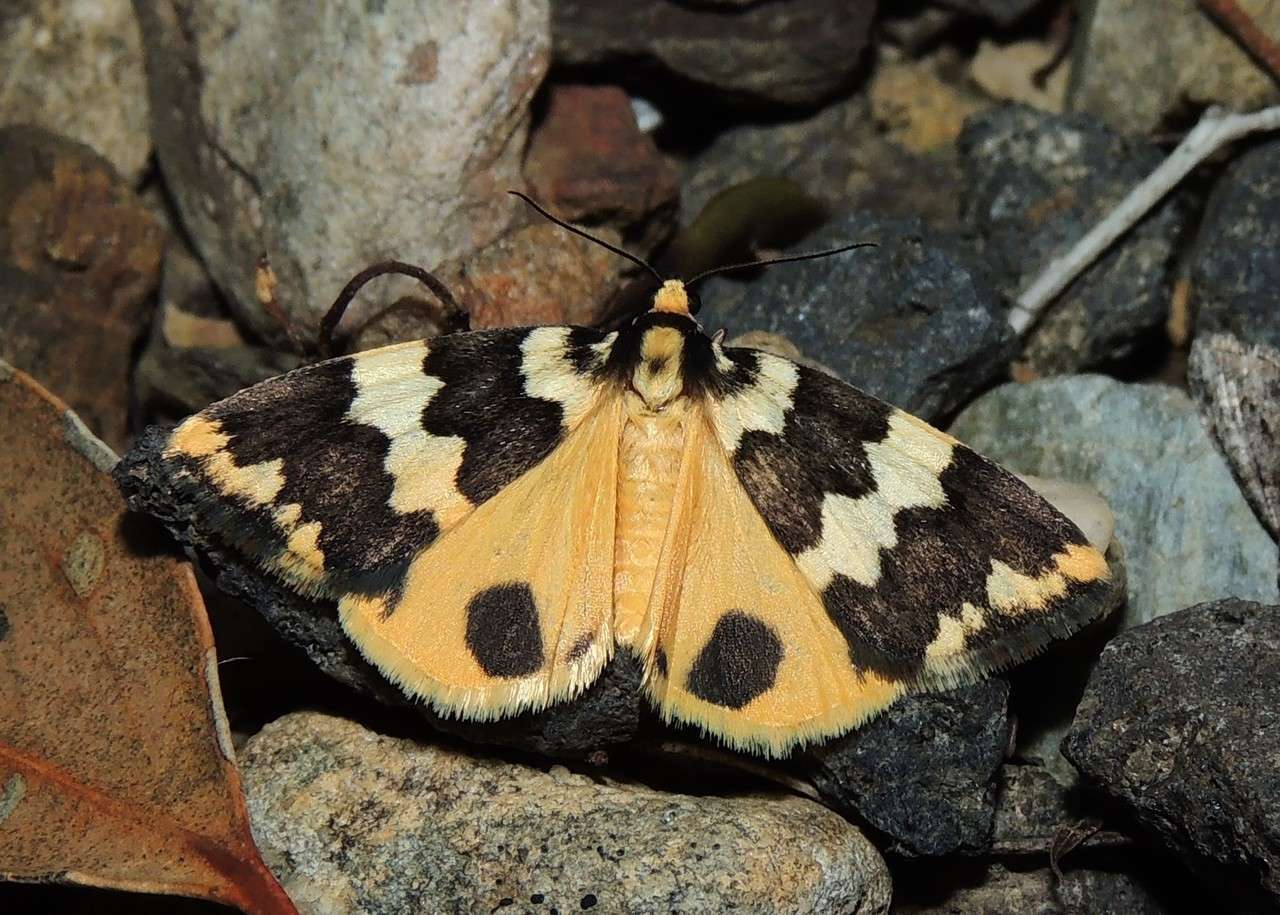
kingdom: Animalia
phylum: Arthropoda
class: Insecta
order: Lepidoptera
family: Erebidae
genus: Termessa
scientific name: Termessa shepherdi
